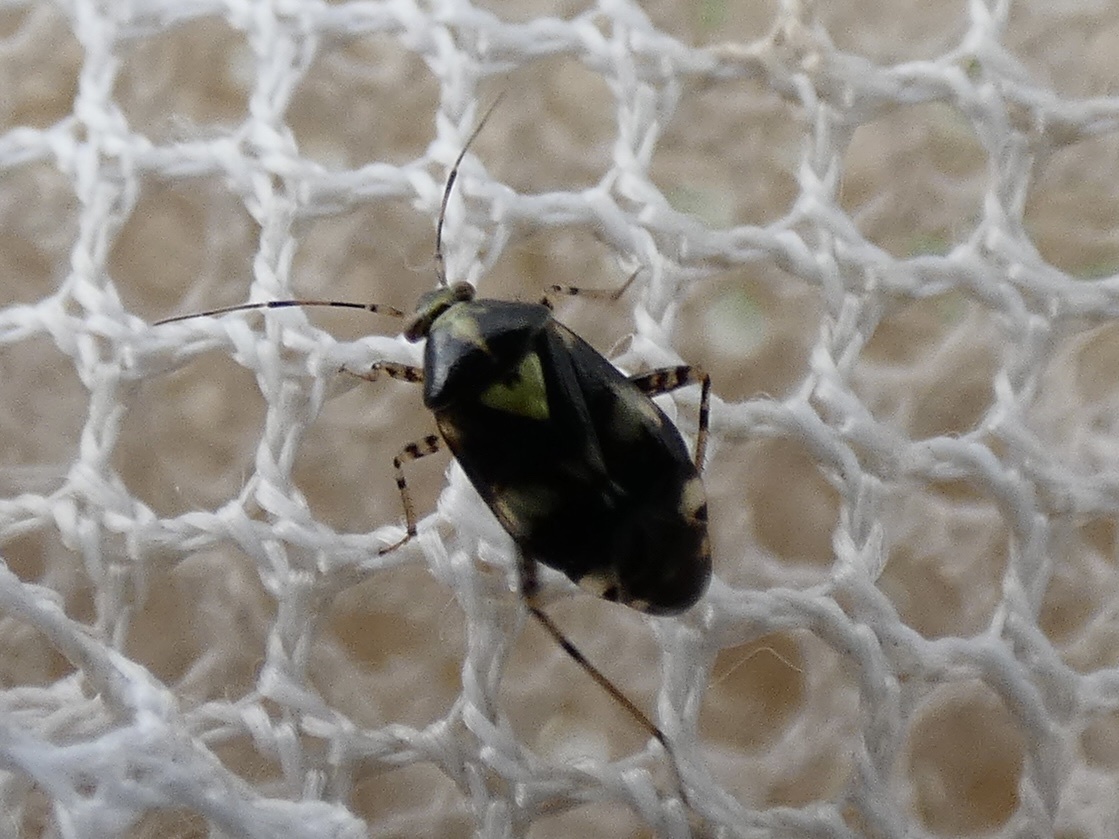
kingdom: Animalia
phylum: Arthropoda
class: Insecta
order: Hemiptera
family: Miridae
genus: Liocoris
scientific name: Liocoris tripustulatus
